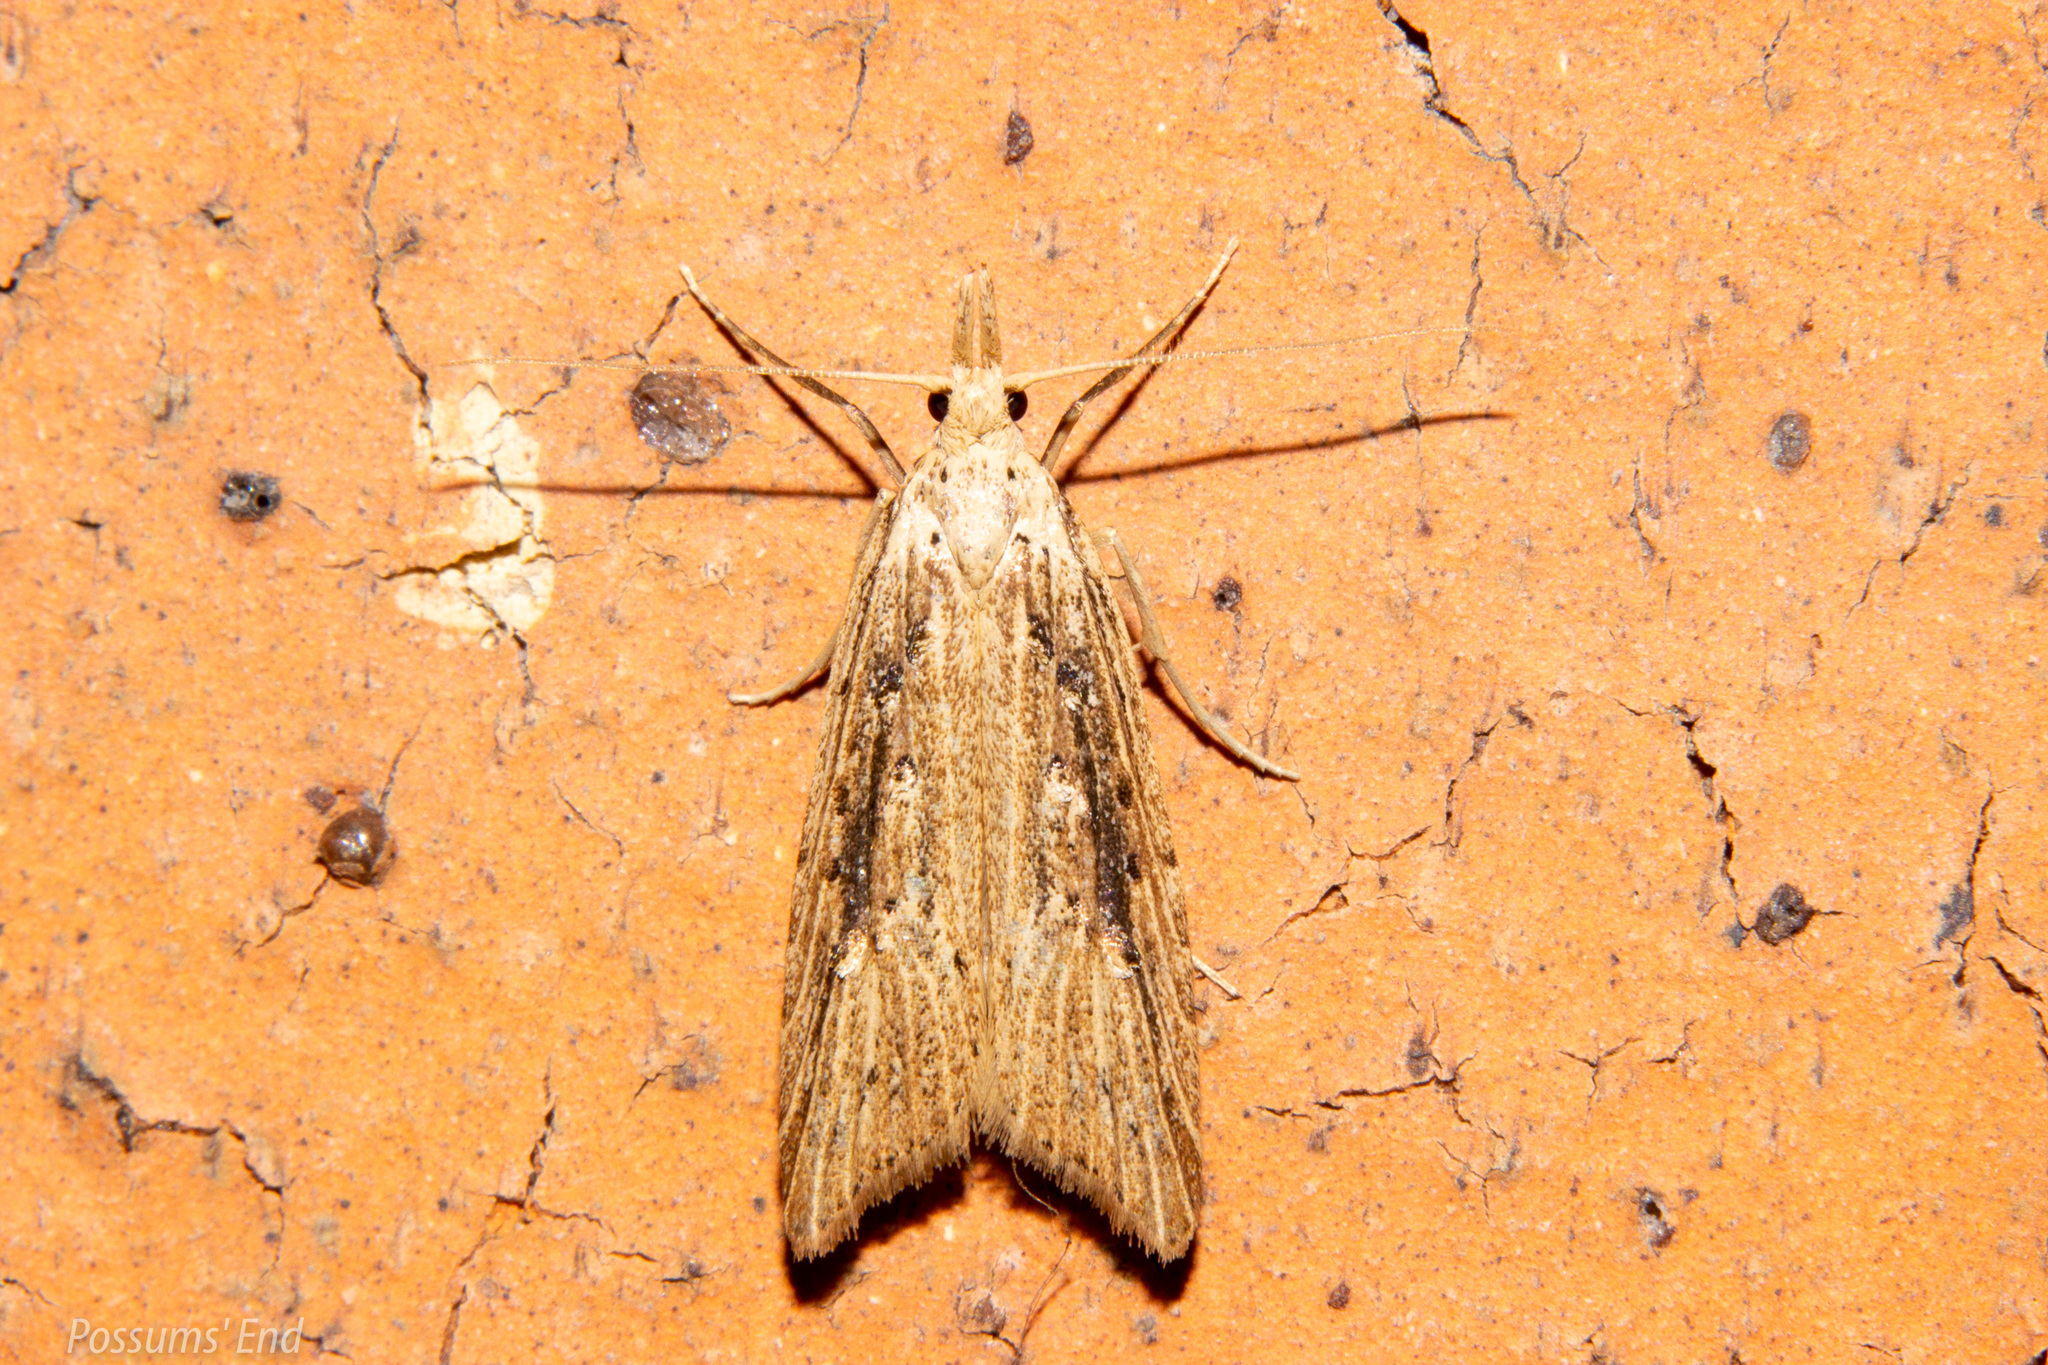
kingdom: Animalia
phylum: Arthropoda
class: Insecta
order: Lepidoptera
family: Carposinidae
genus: Carposina
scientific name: Carposina Heterocrossa exochana
